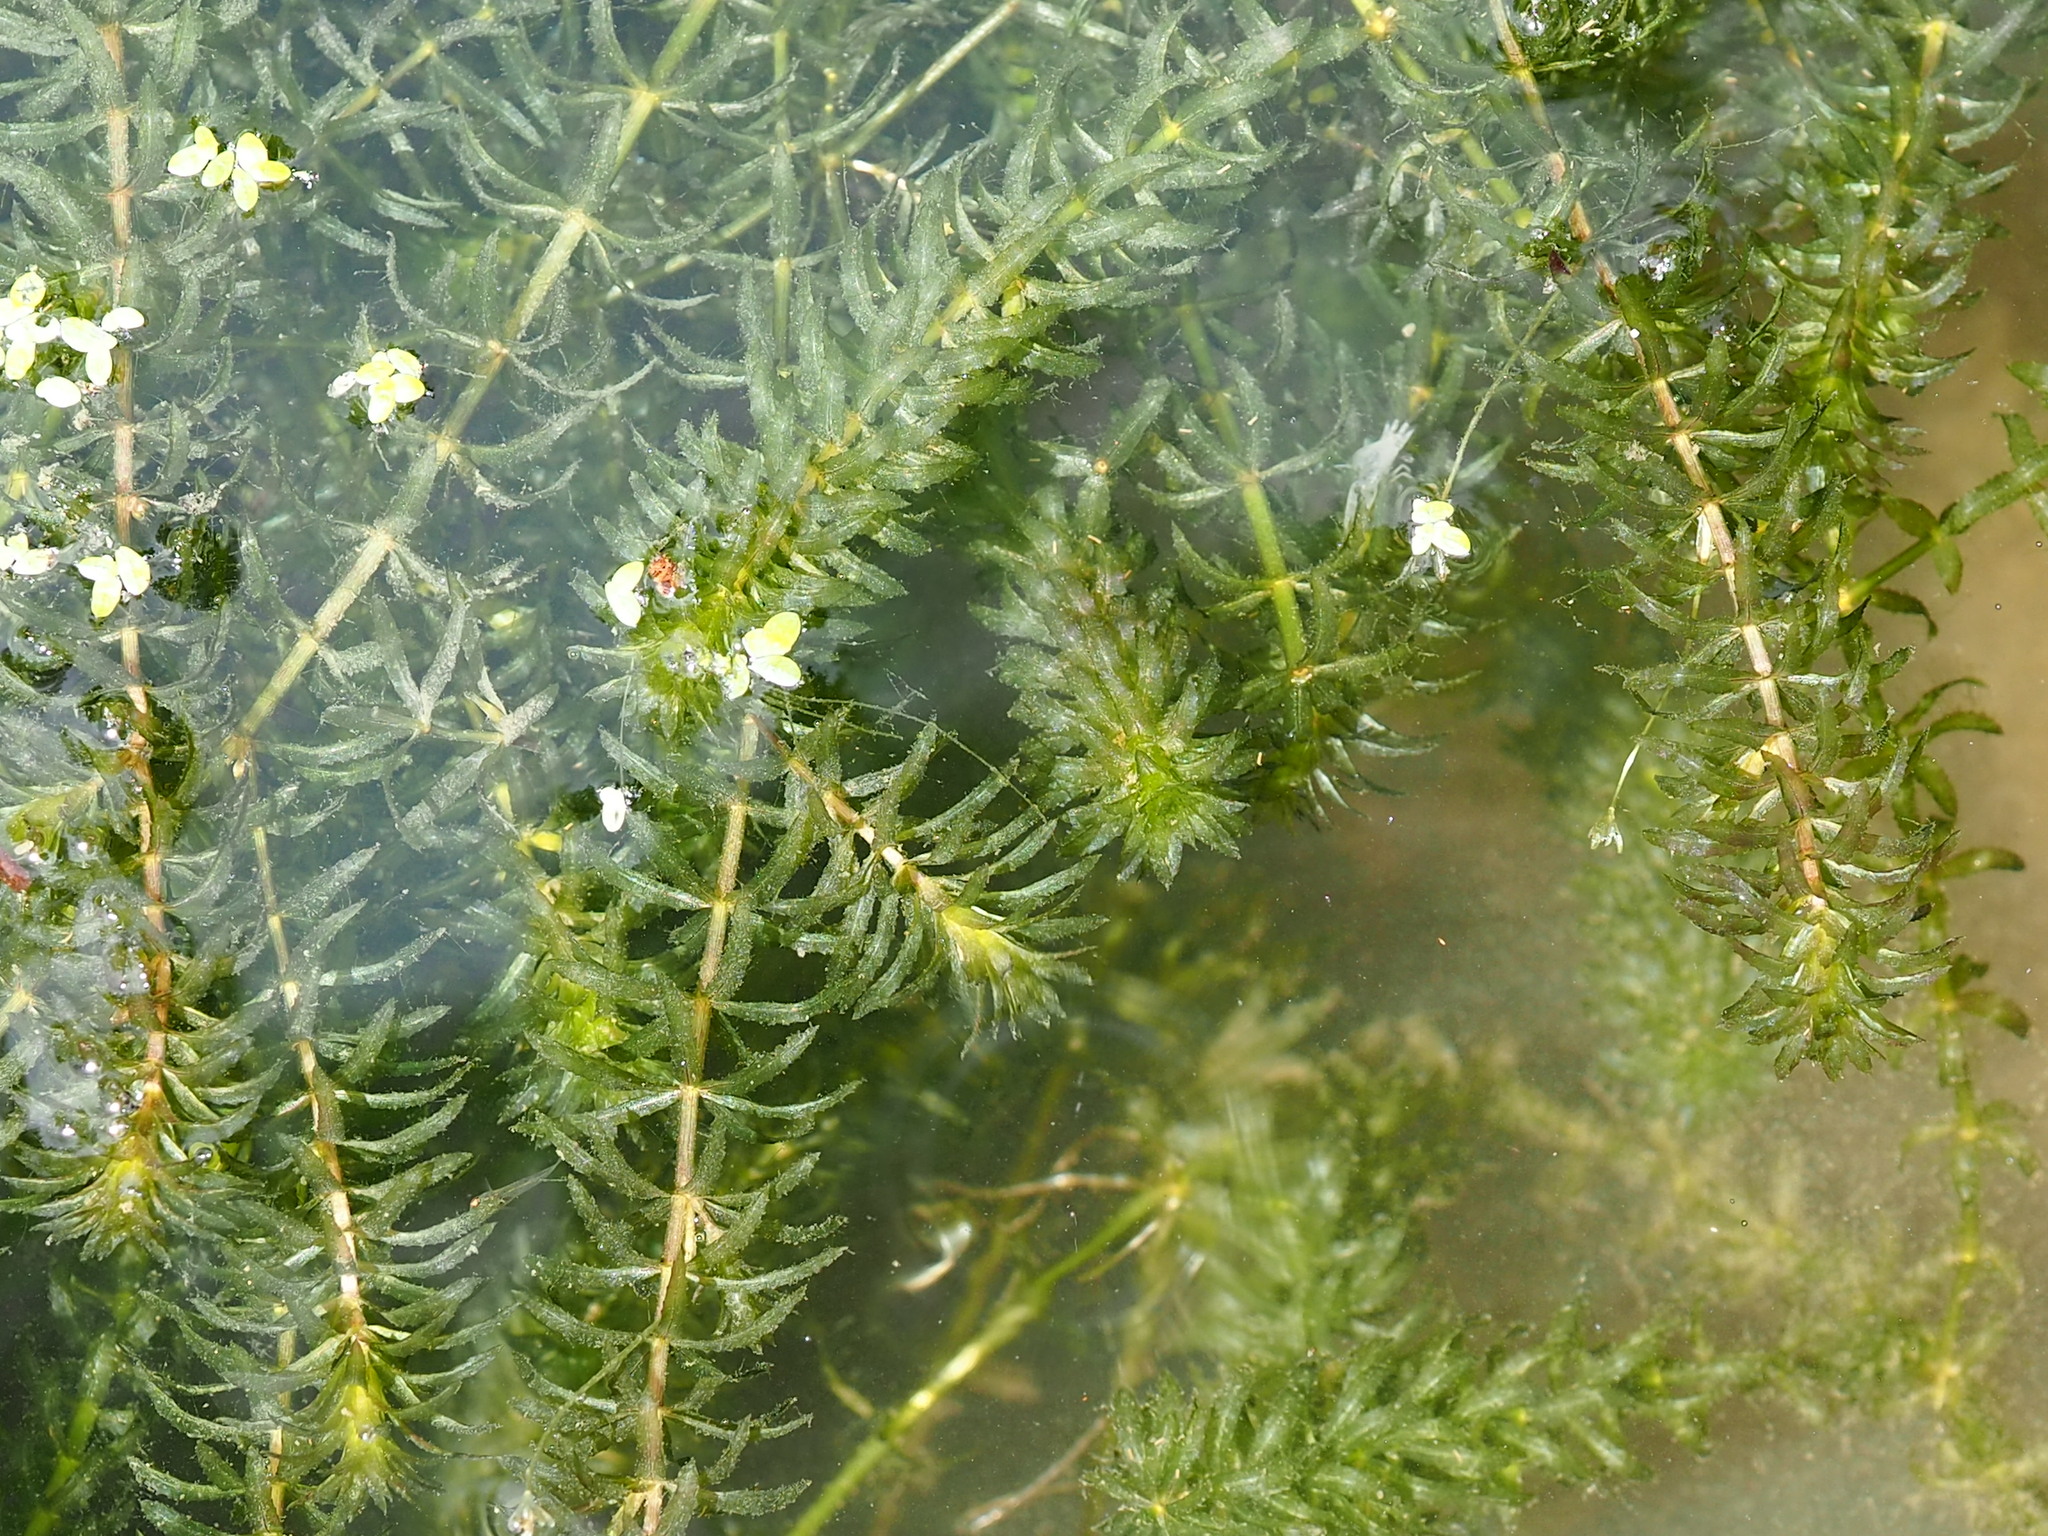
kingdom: Plantae
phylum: Tracheophyta
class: Liliopsida
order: Alismatales
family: Hydrocharitaceae
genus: Hydrilla
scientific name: Hydrilla verticillata
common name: Florida-elodea
